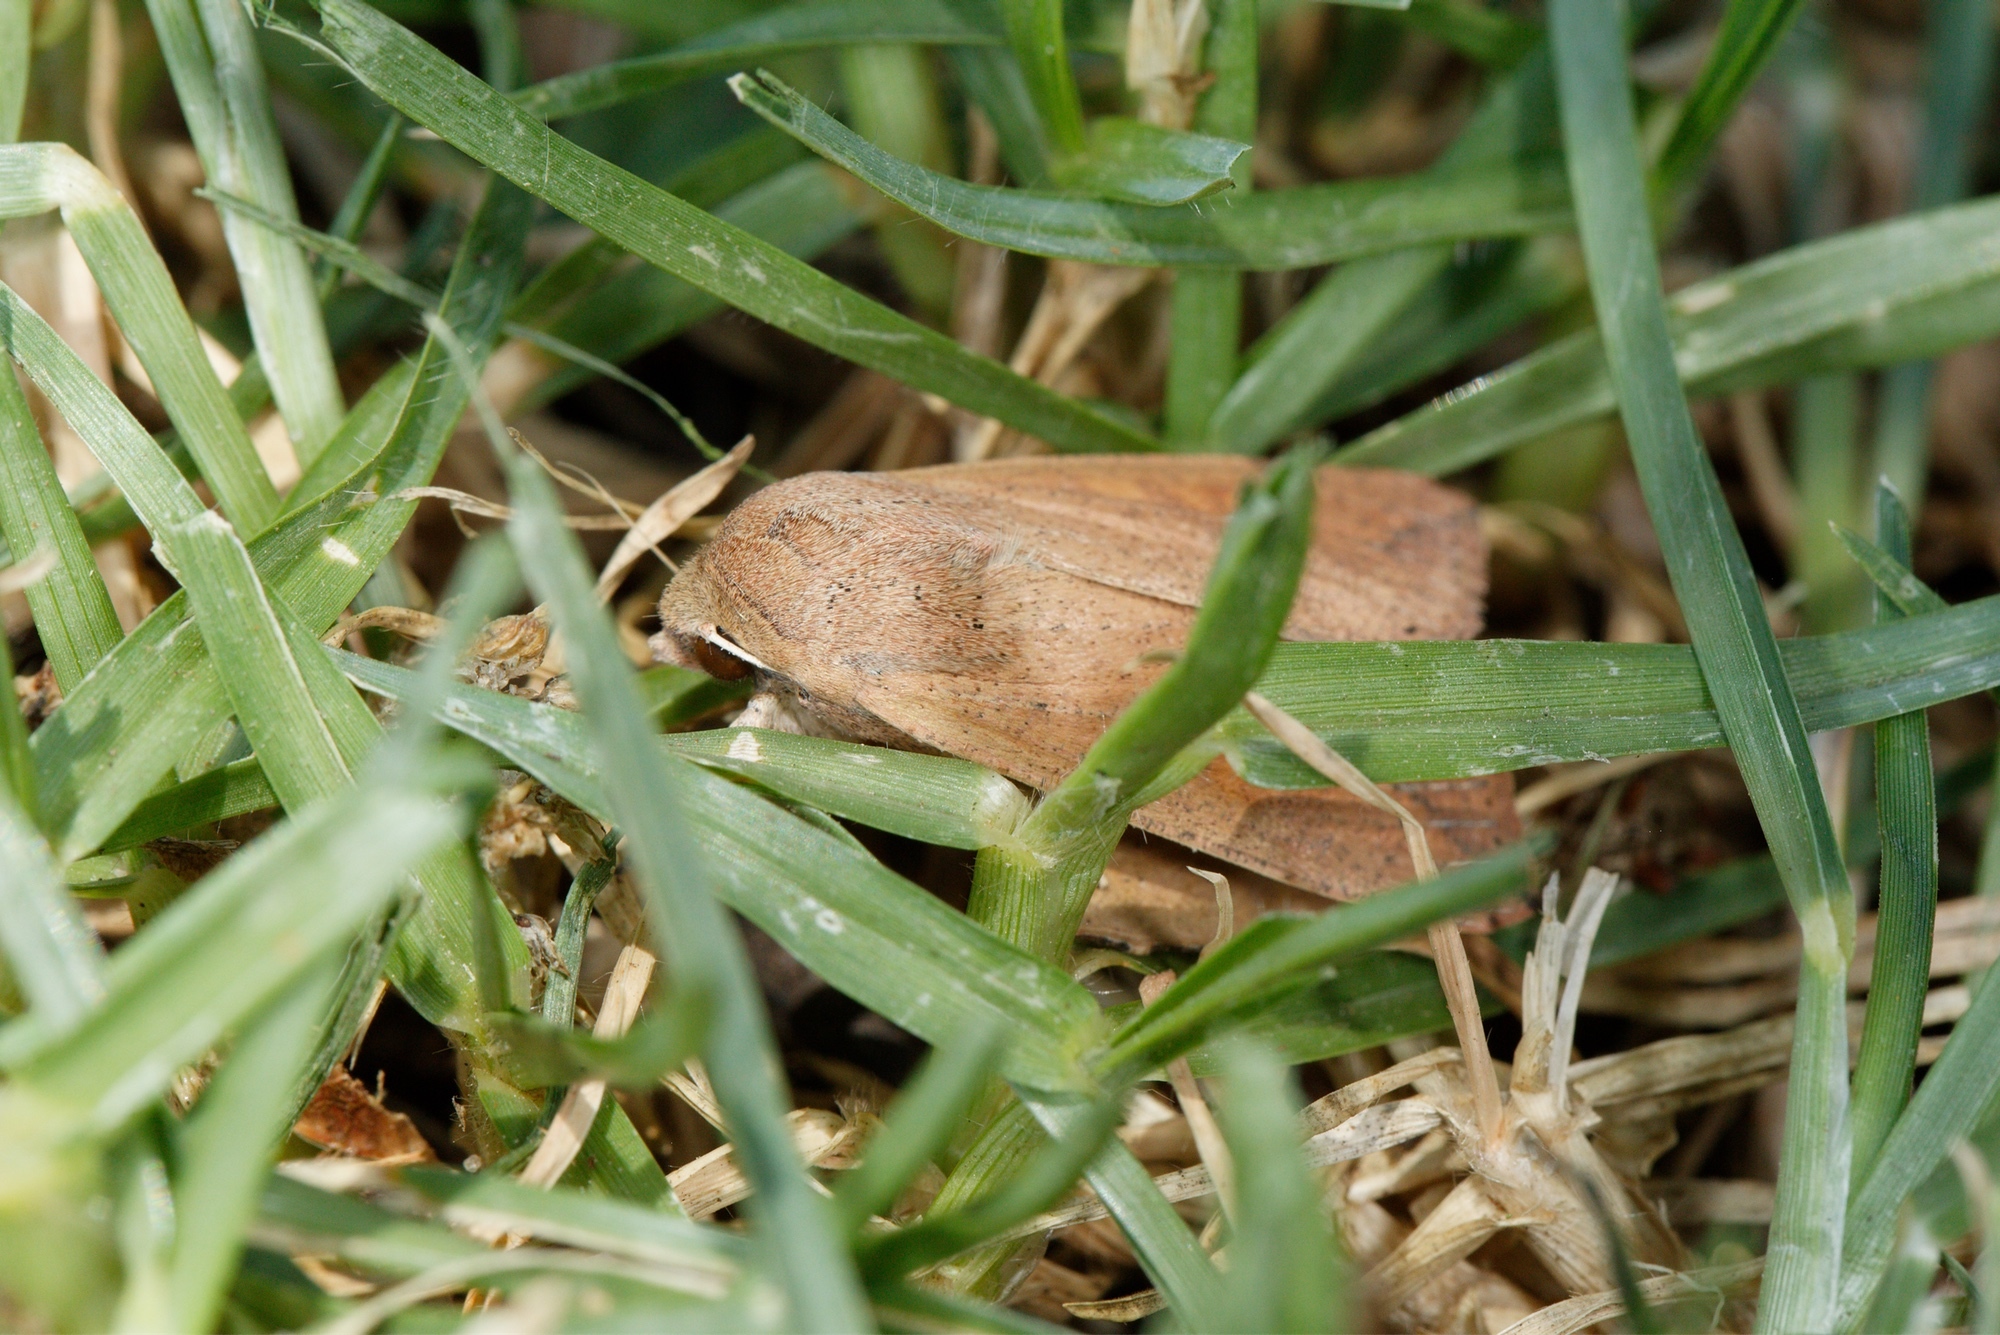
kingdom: Animalia
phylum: Arthropoda
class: Insecta
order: Lepidoptera
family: Noctuidae
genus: Mythimna
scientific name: Mythimna convecta
